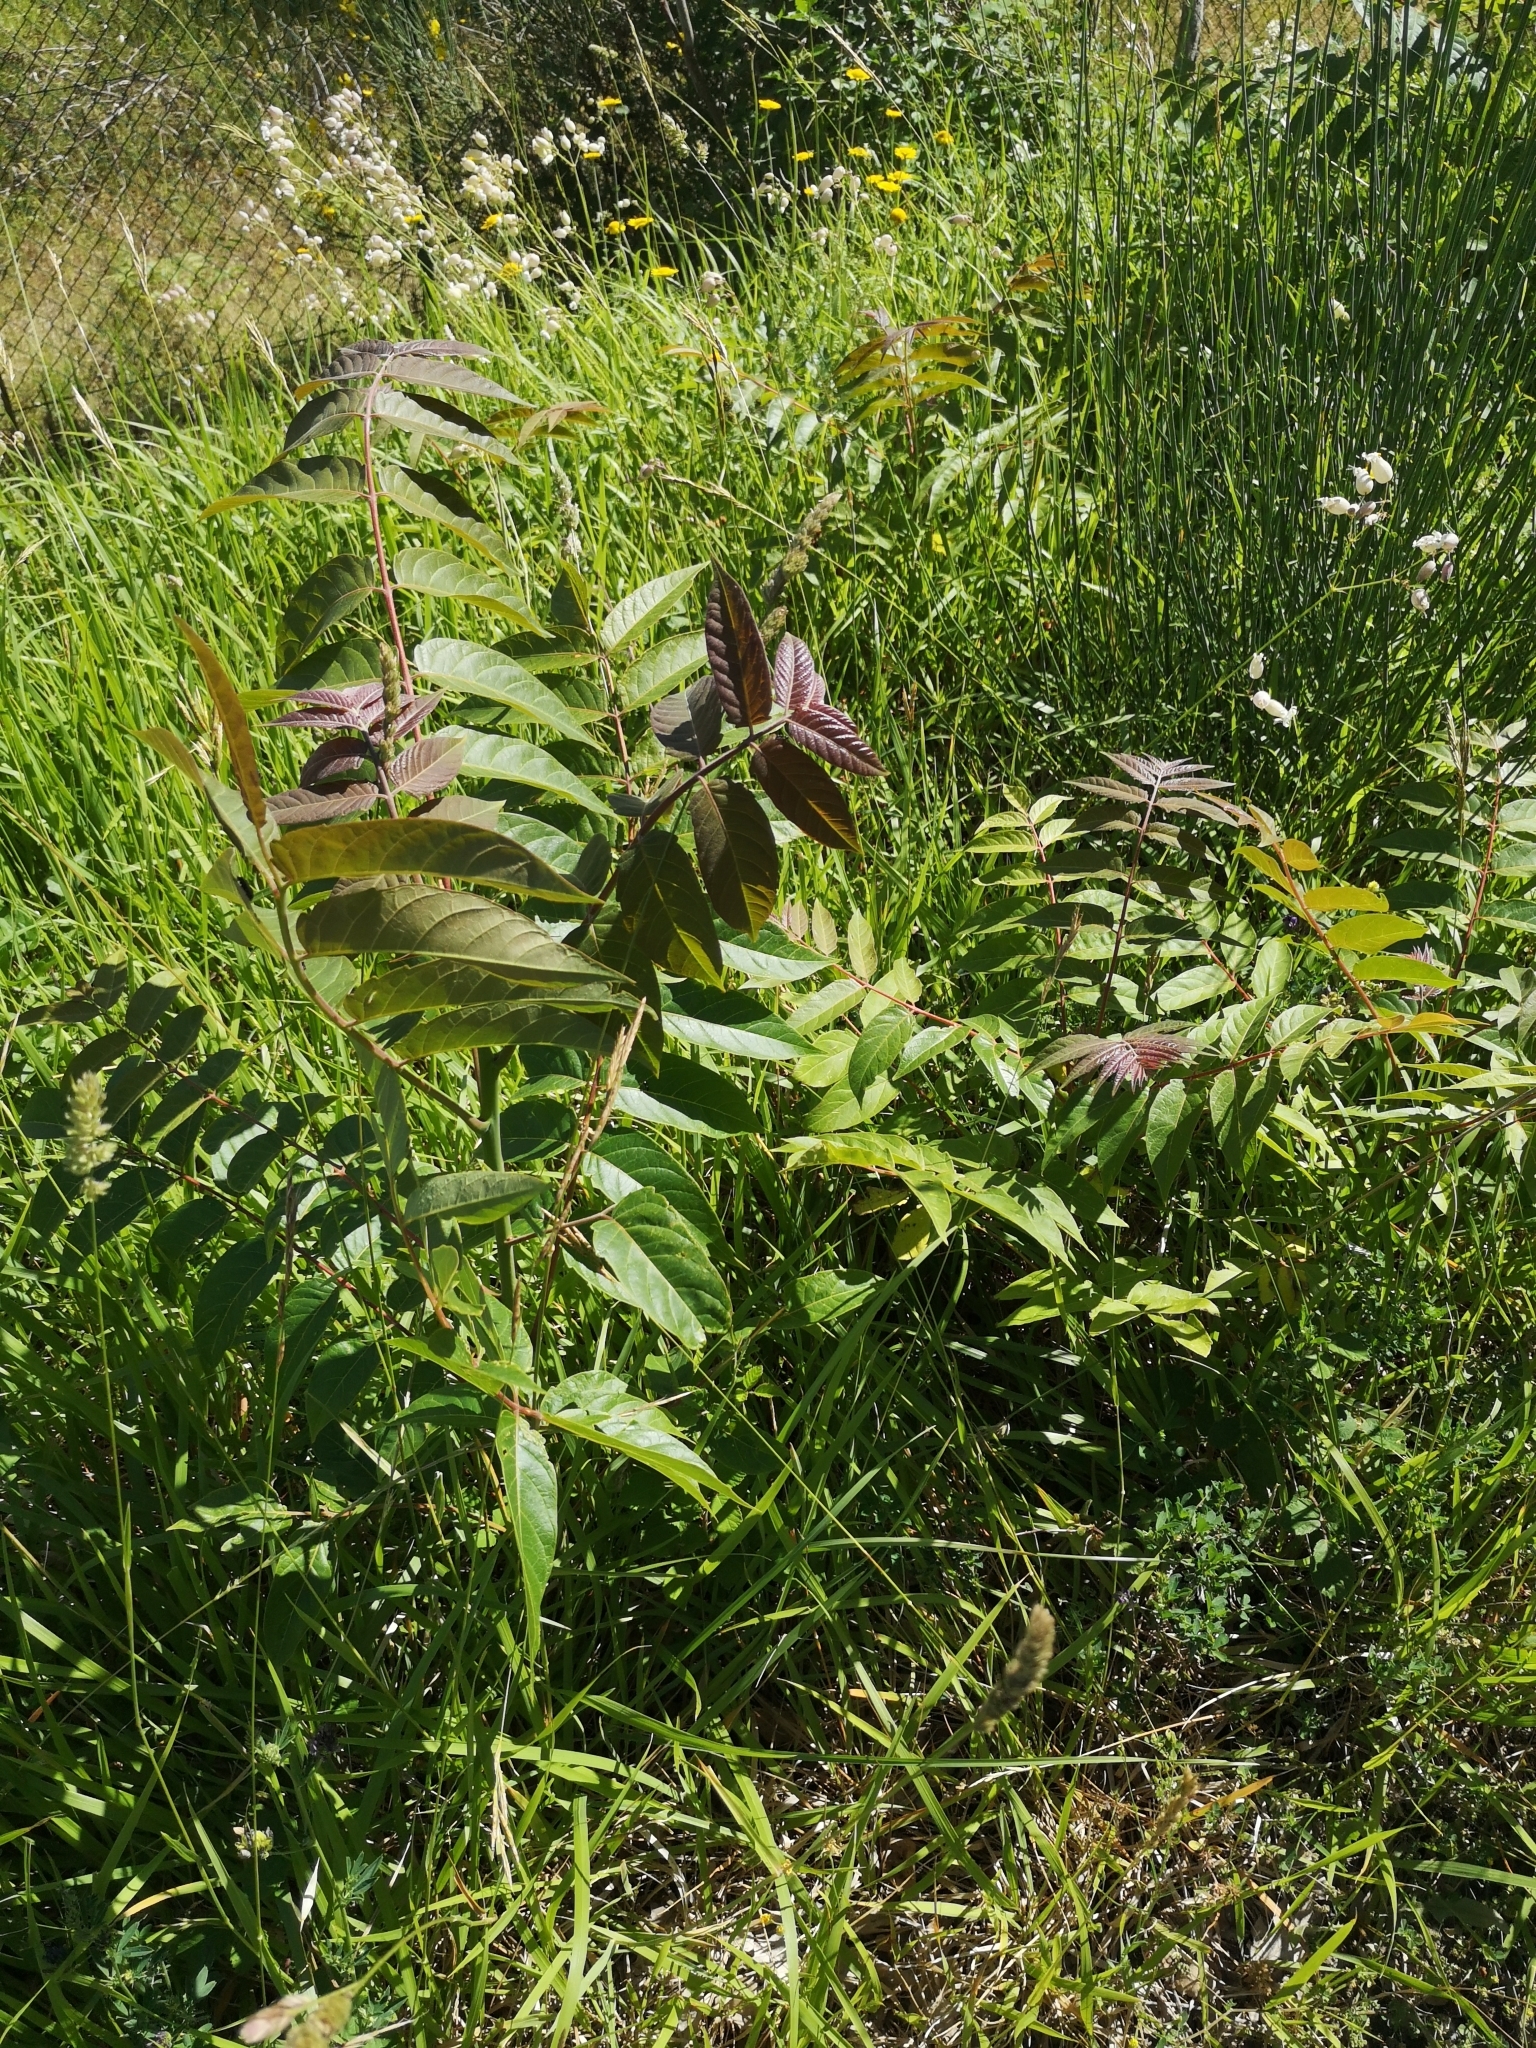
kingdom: Plantae
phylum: Tracheophyta
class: Magnoliopsida
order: Sapindales
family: Simaroubaceae
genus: Ailanthus
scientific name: Ailanthus altissima
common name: Tree-of-heaven
